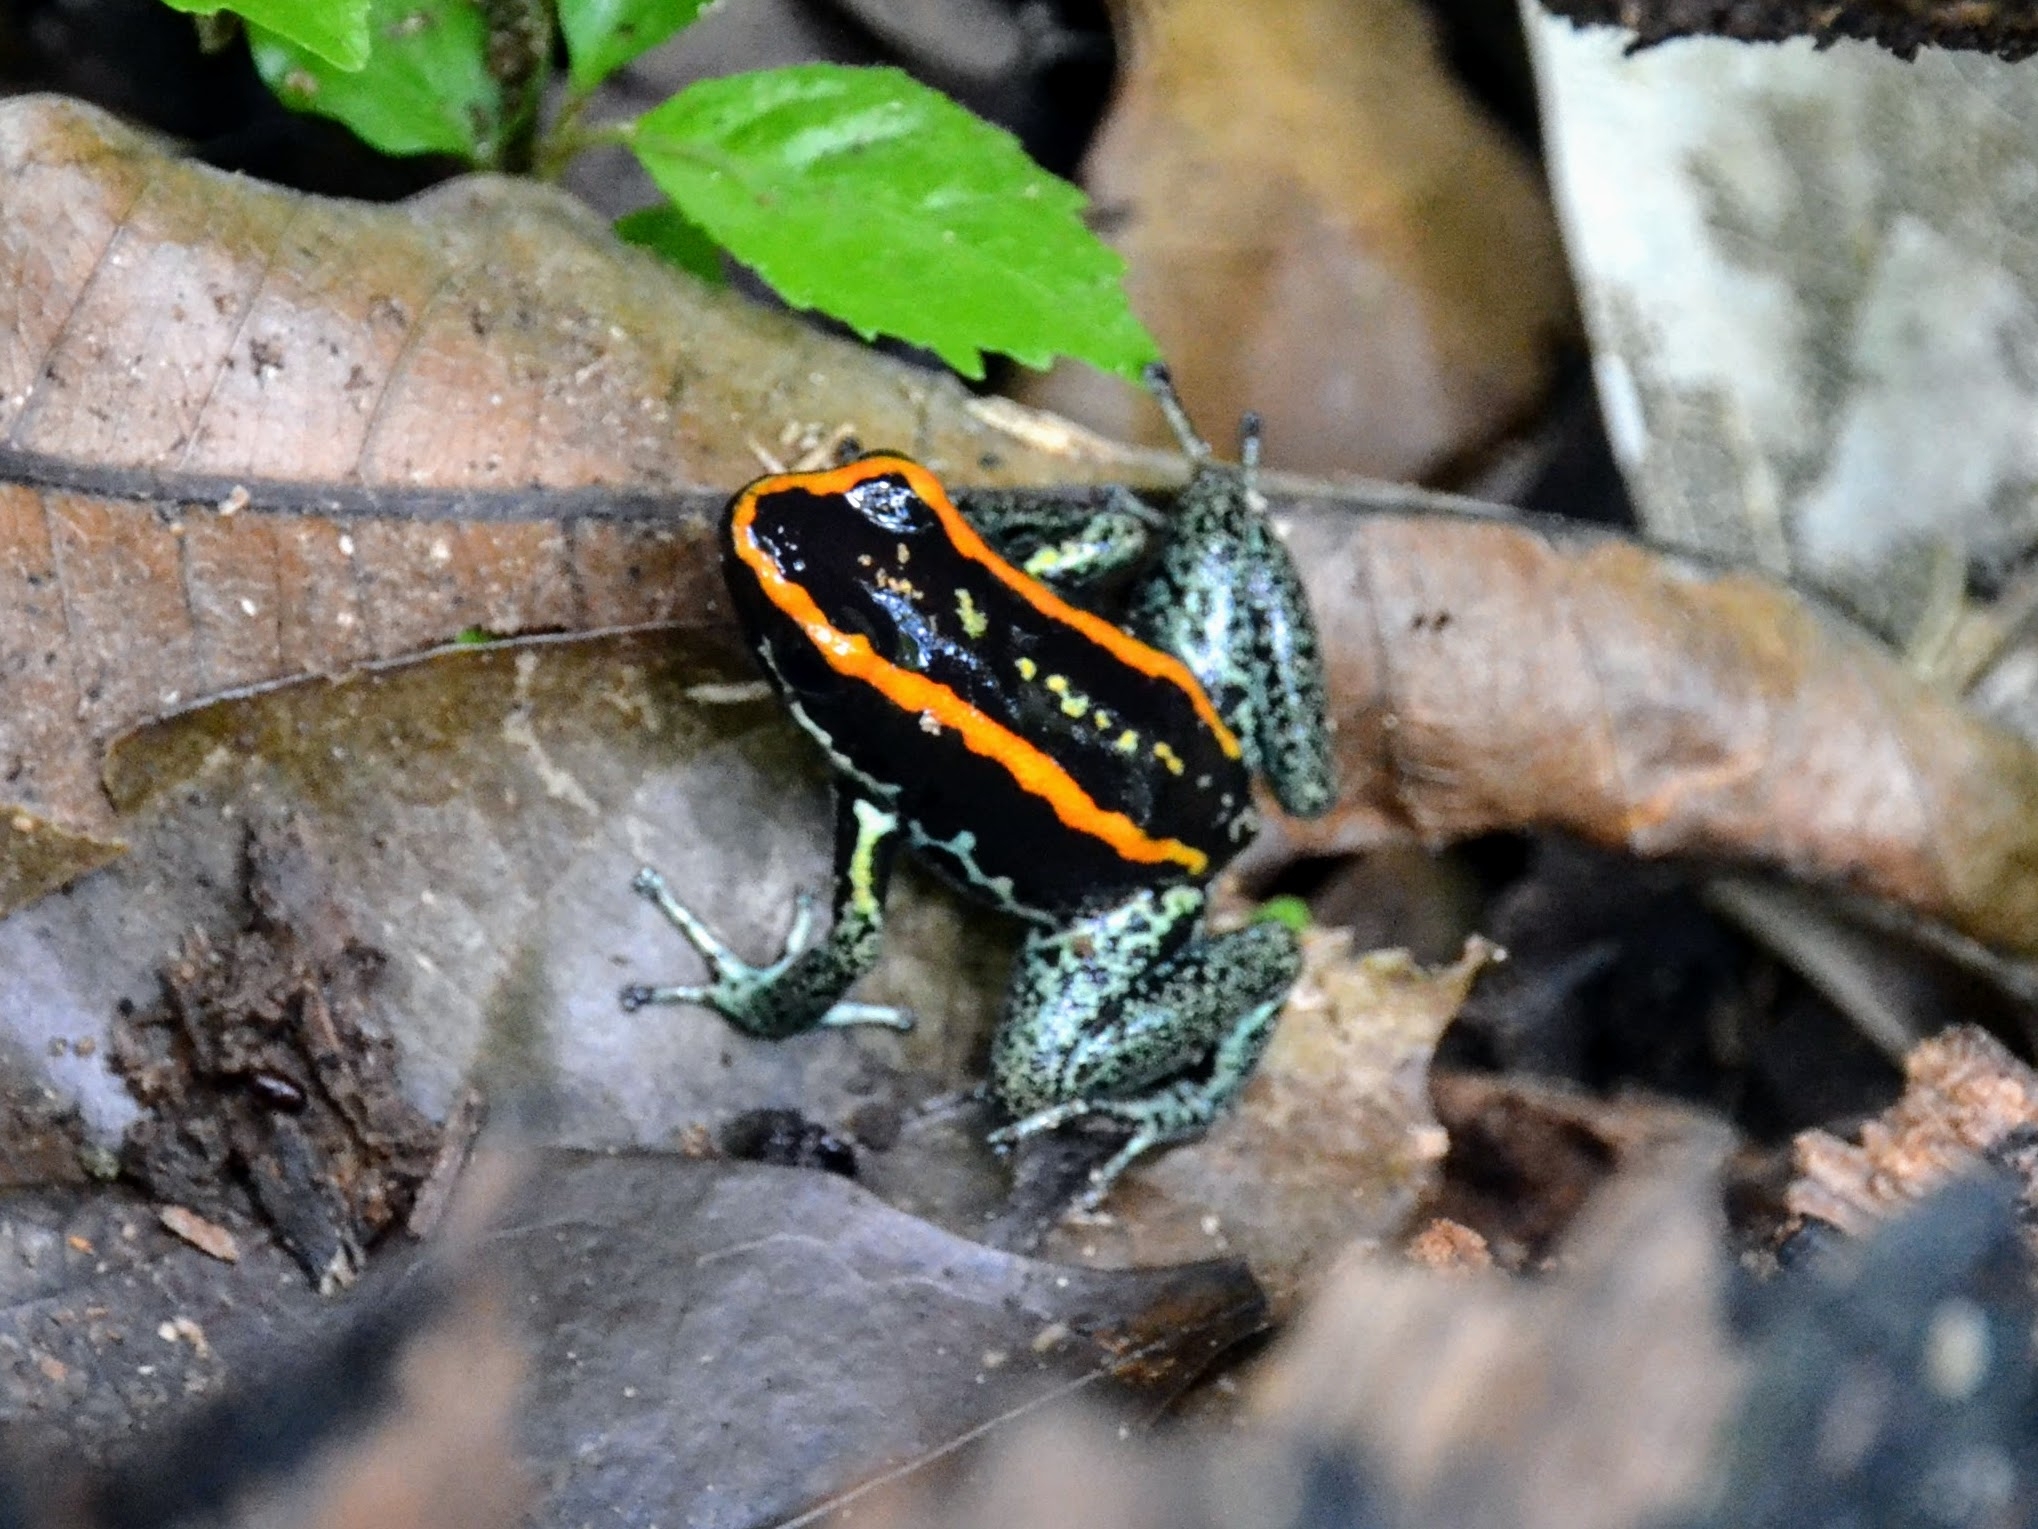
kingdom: Animalia
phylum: Chordata
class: Amphibia
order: Anura
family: Dendrobatidae
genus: Phyllobates
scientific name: Phyllobates vittatus
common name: Golfodulcean poison frog
